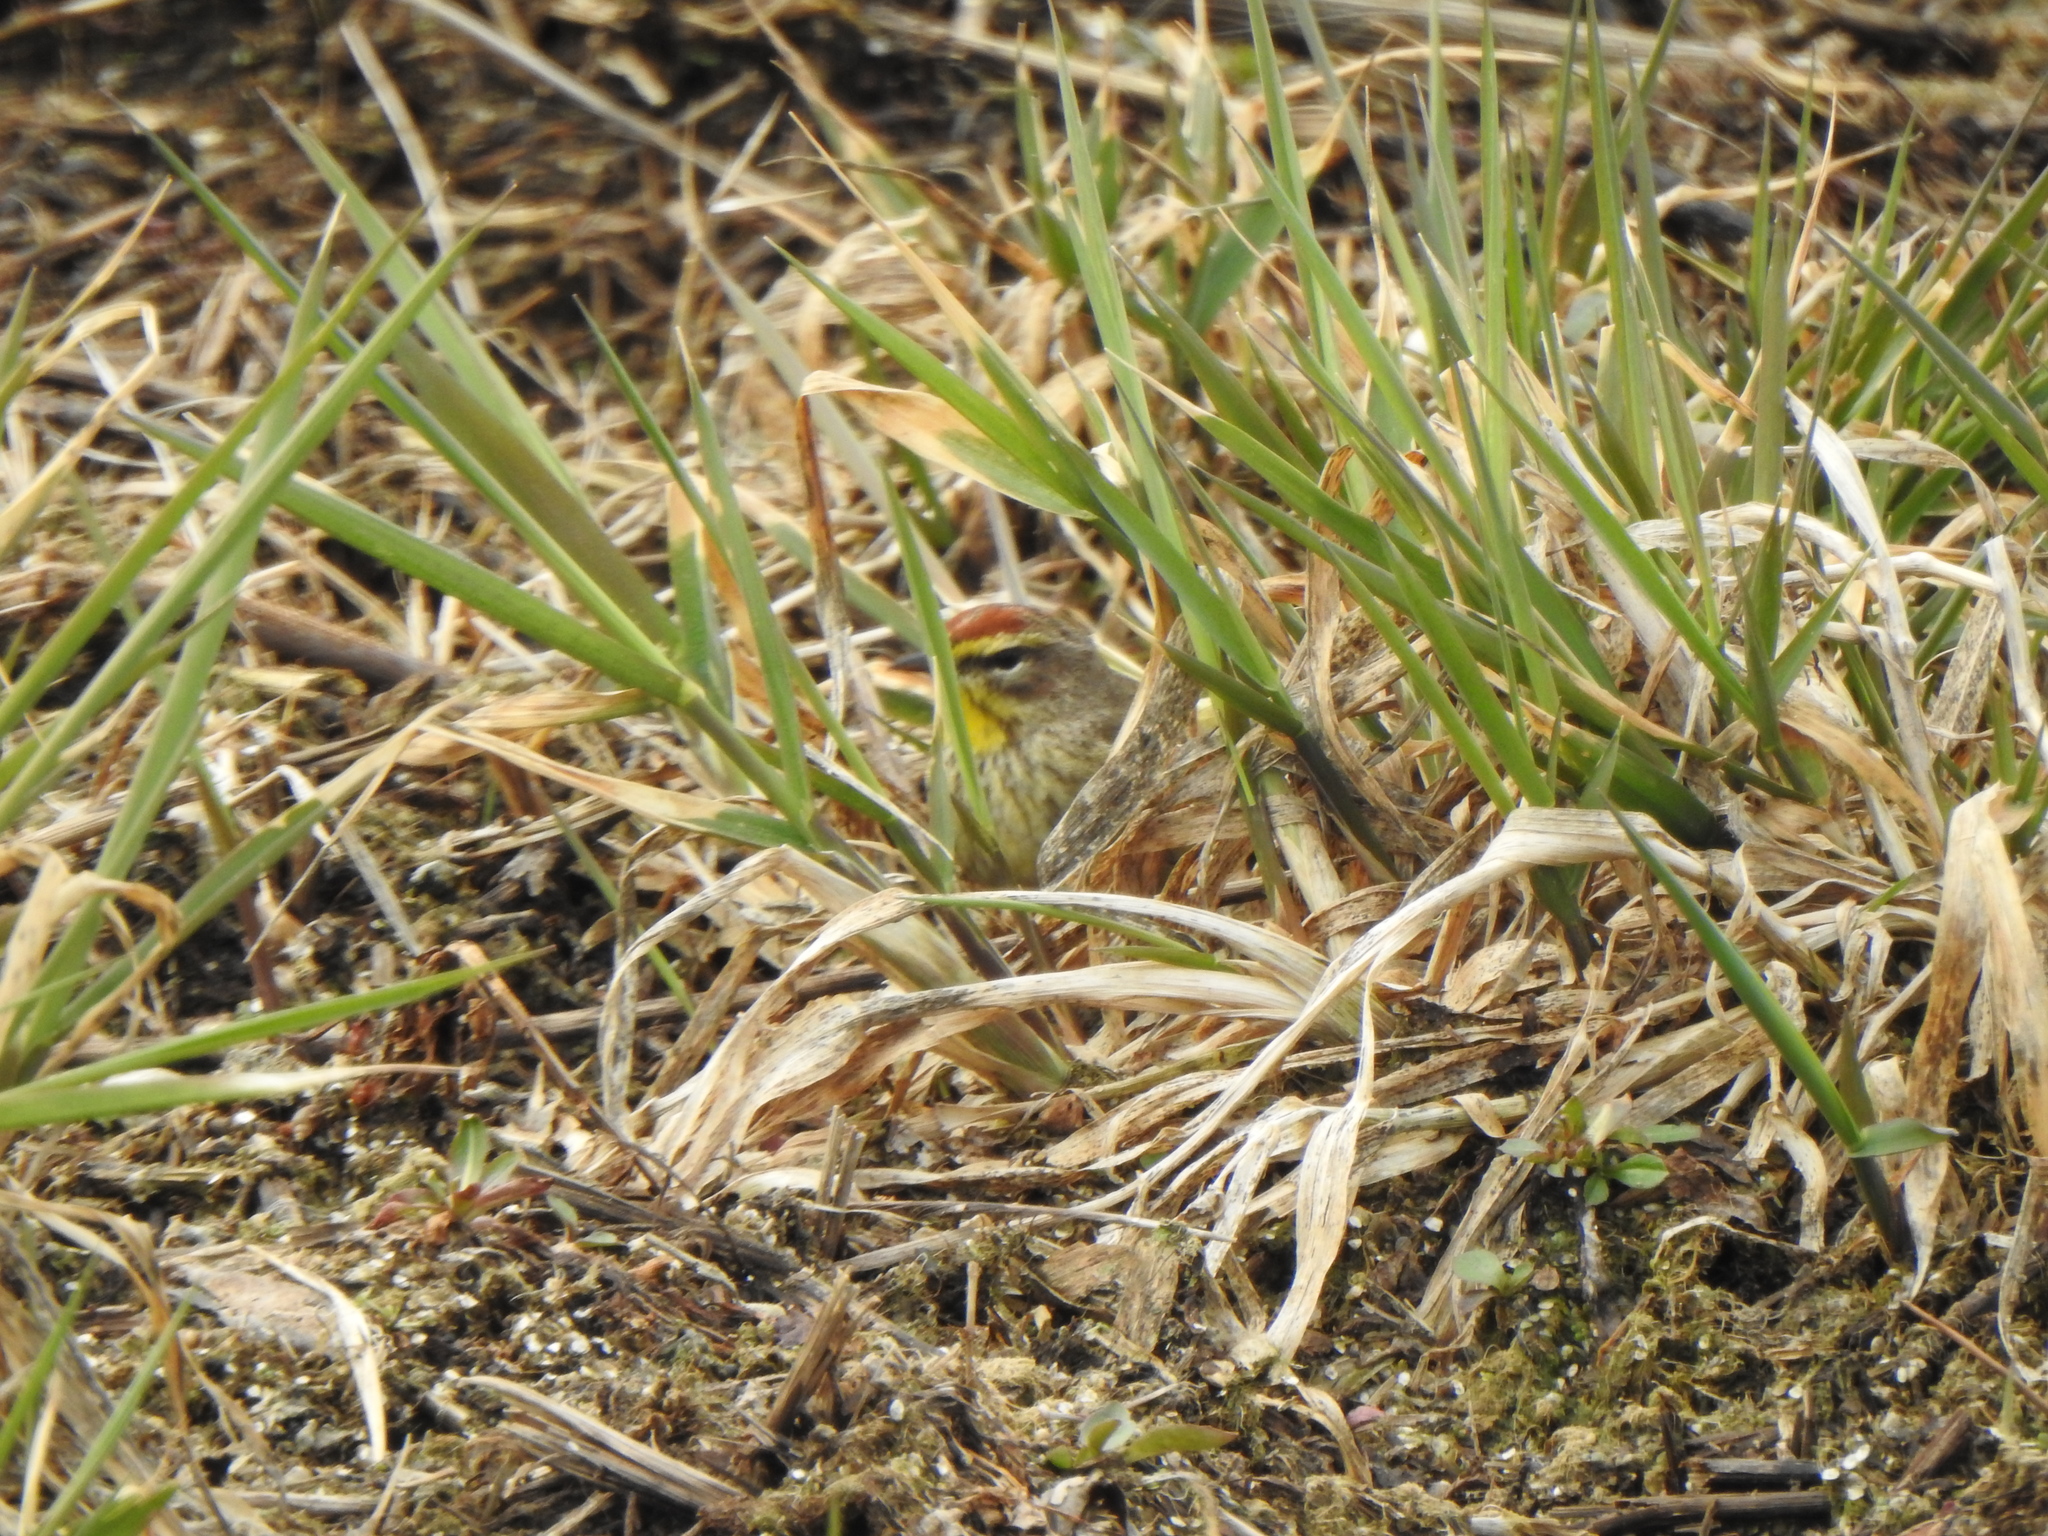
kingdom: Animalia
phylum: Chordata
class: Aves
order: Passeriformes
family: Parulidae
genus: Setophaga
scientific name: Setophaga palmarum
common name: Palm warbler
